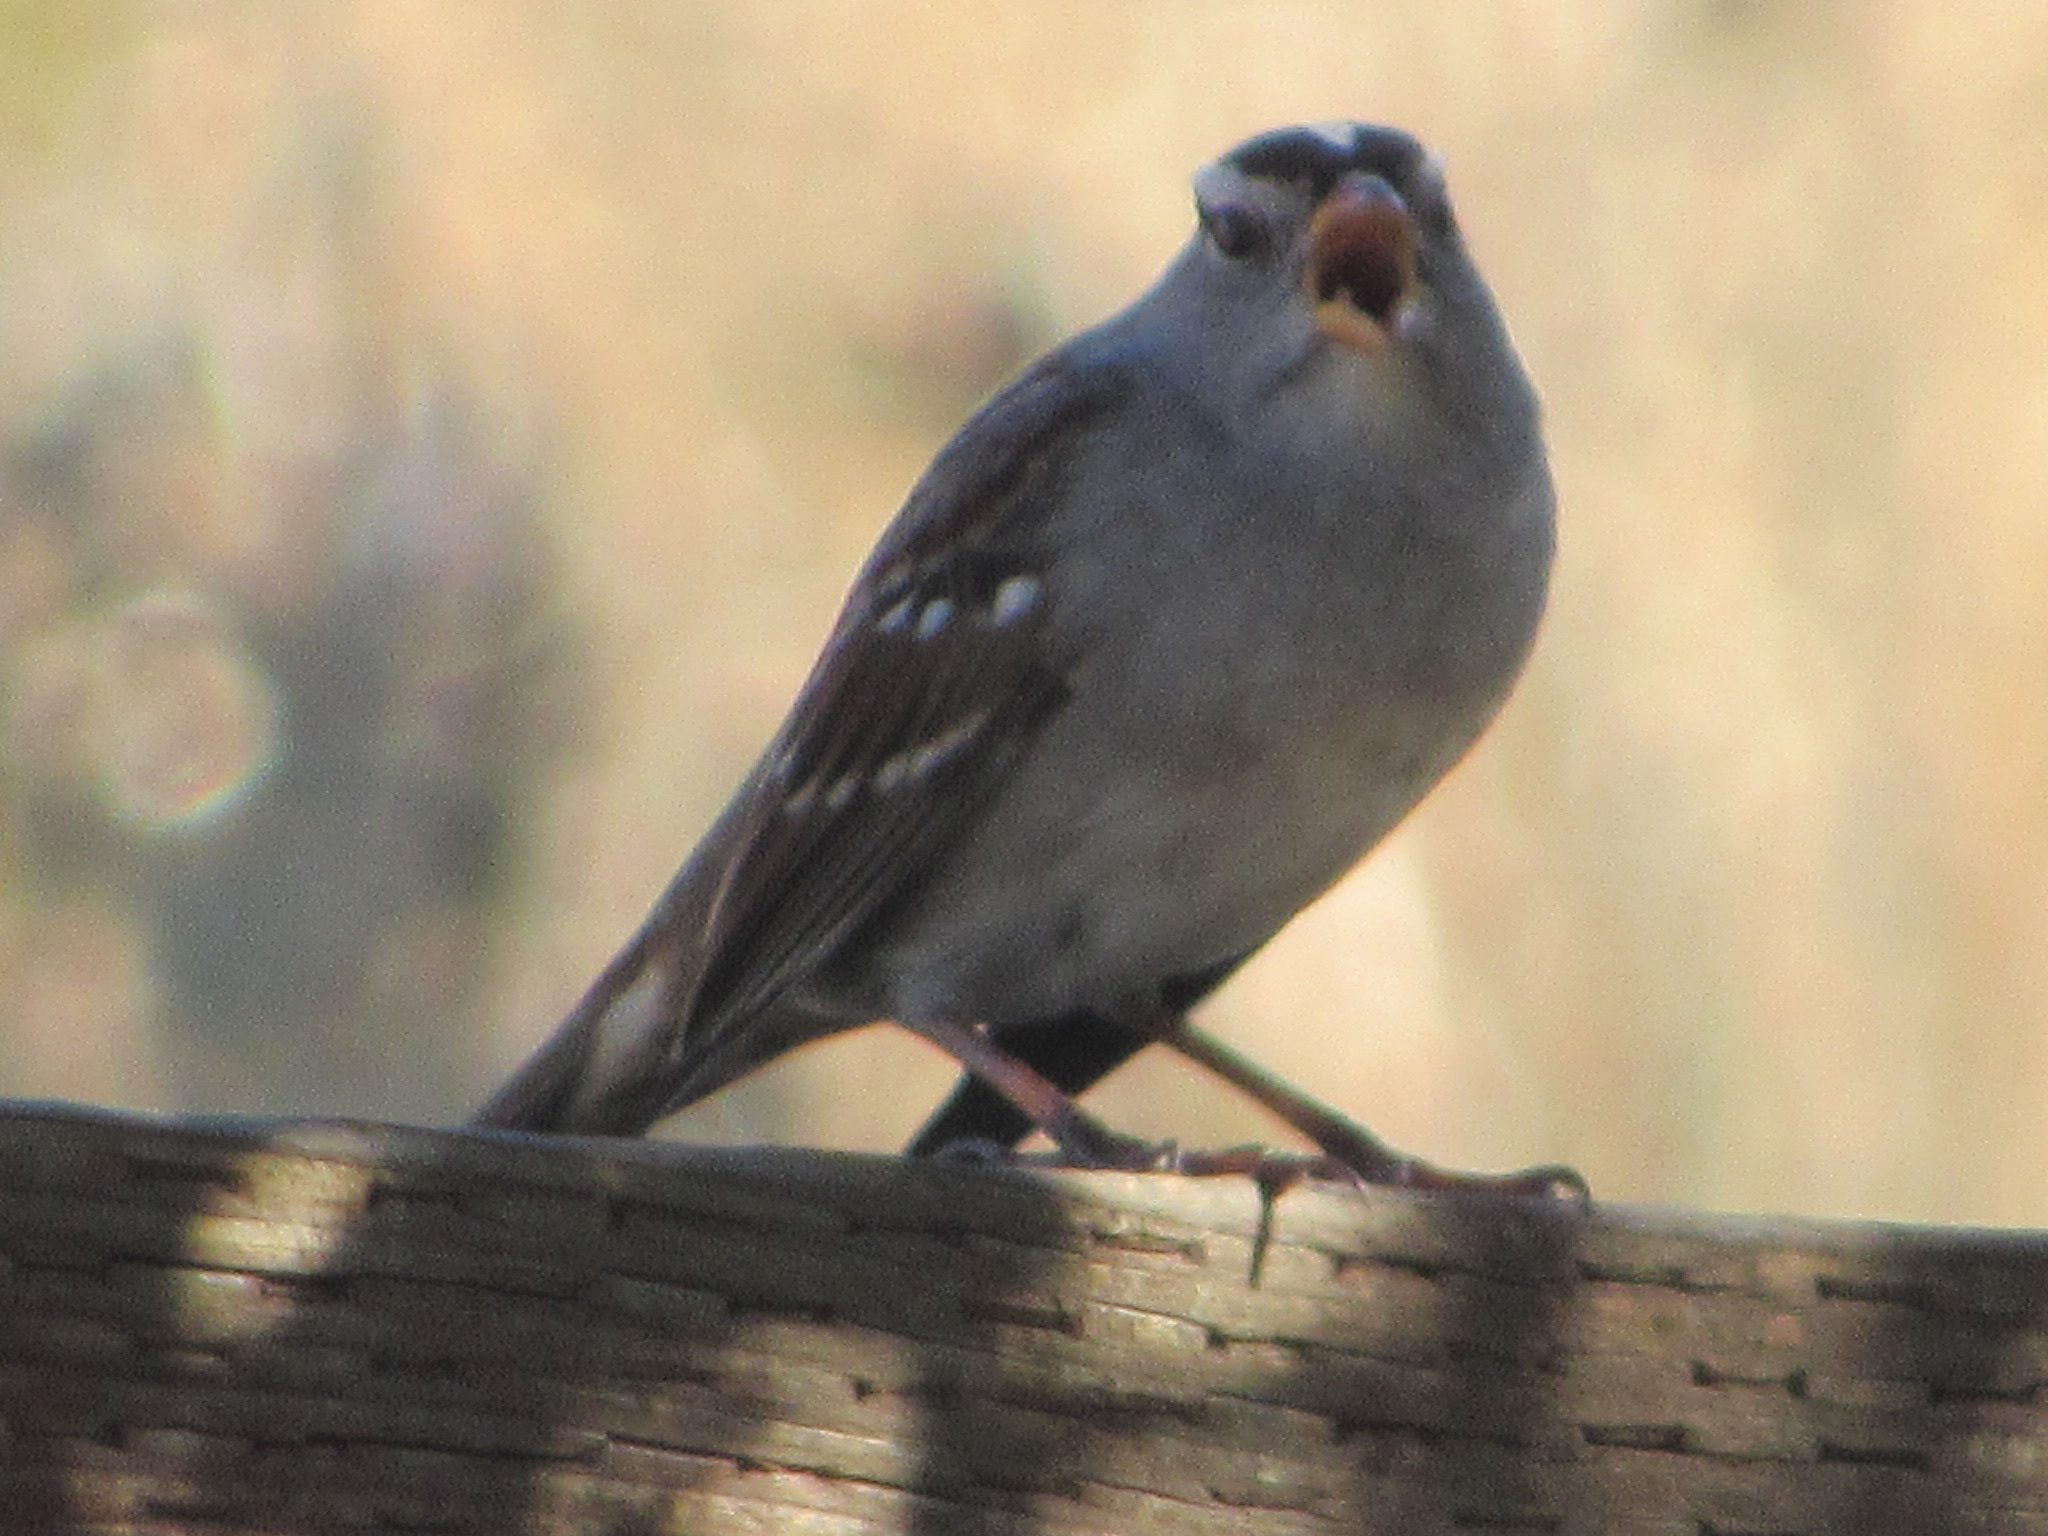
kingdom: Animalia
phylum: Chordata
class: Aves
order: Passeriformes
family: Passerellidae
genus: Zonotrichia
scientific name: Zonotrichia leucophrys
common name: White-crowned sparrow
